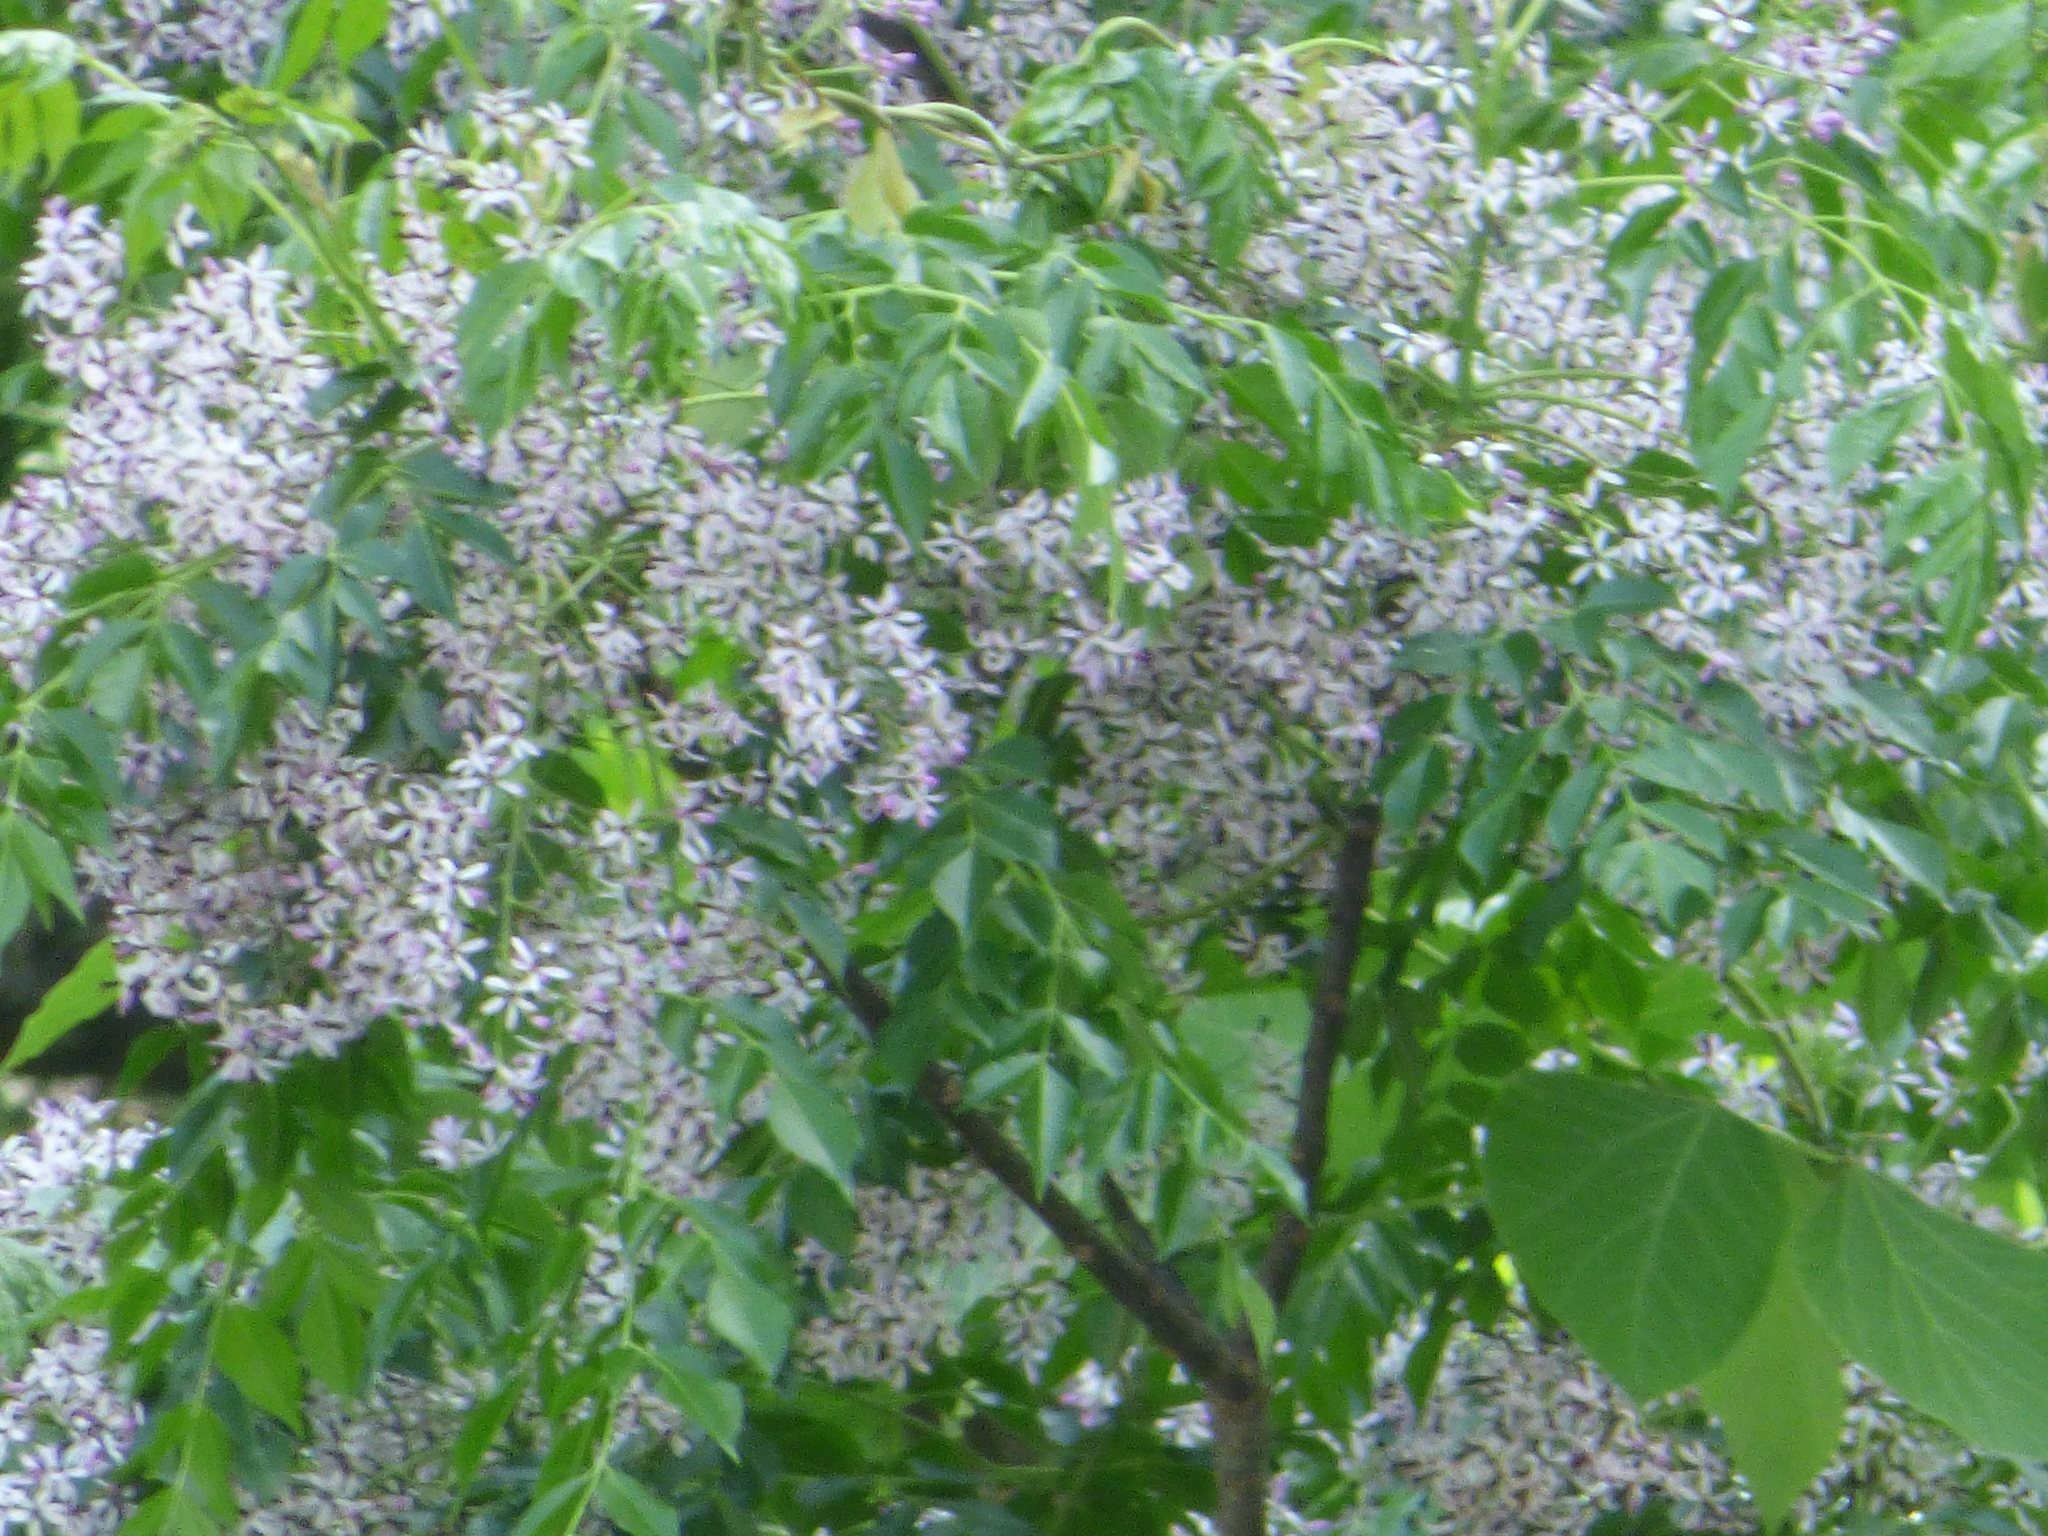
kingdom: Plantae
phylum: Tracheophyta
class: Magnoliopsida
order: Sapindales
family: Meliaceae
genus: Melia
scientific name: Melia azedarach
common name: Chinaberrytree
